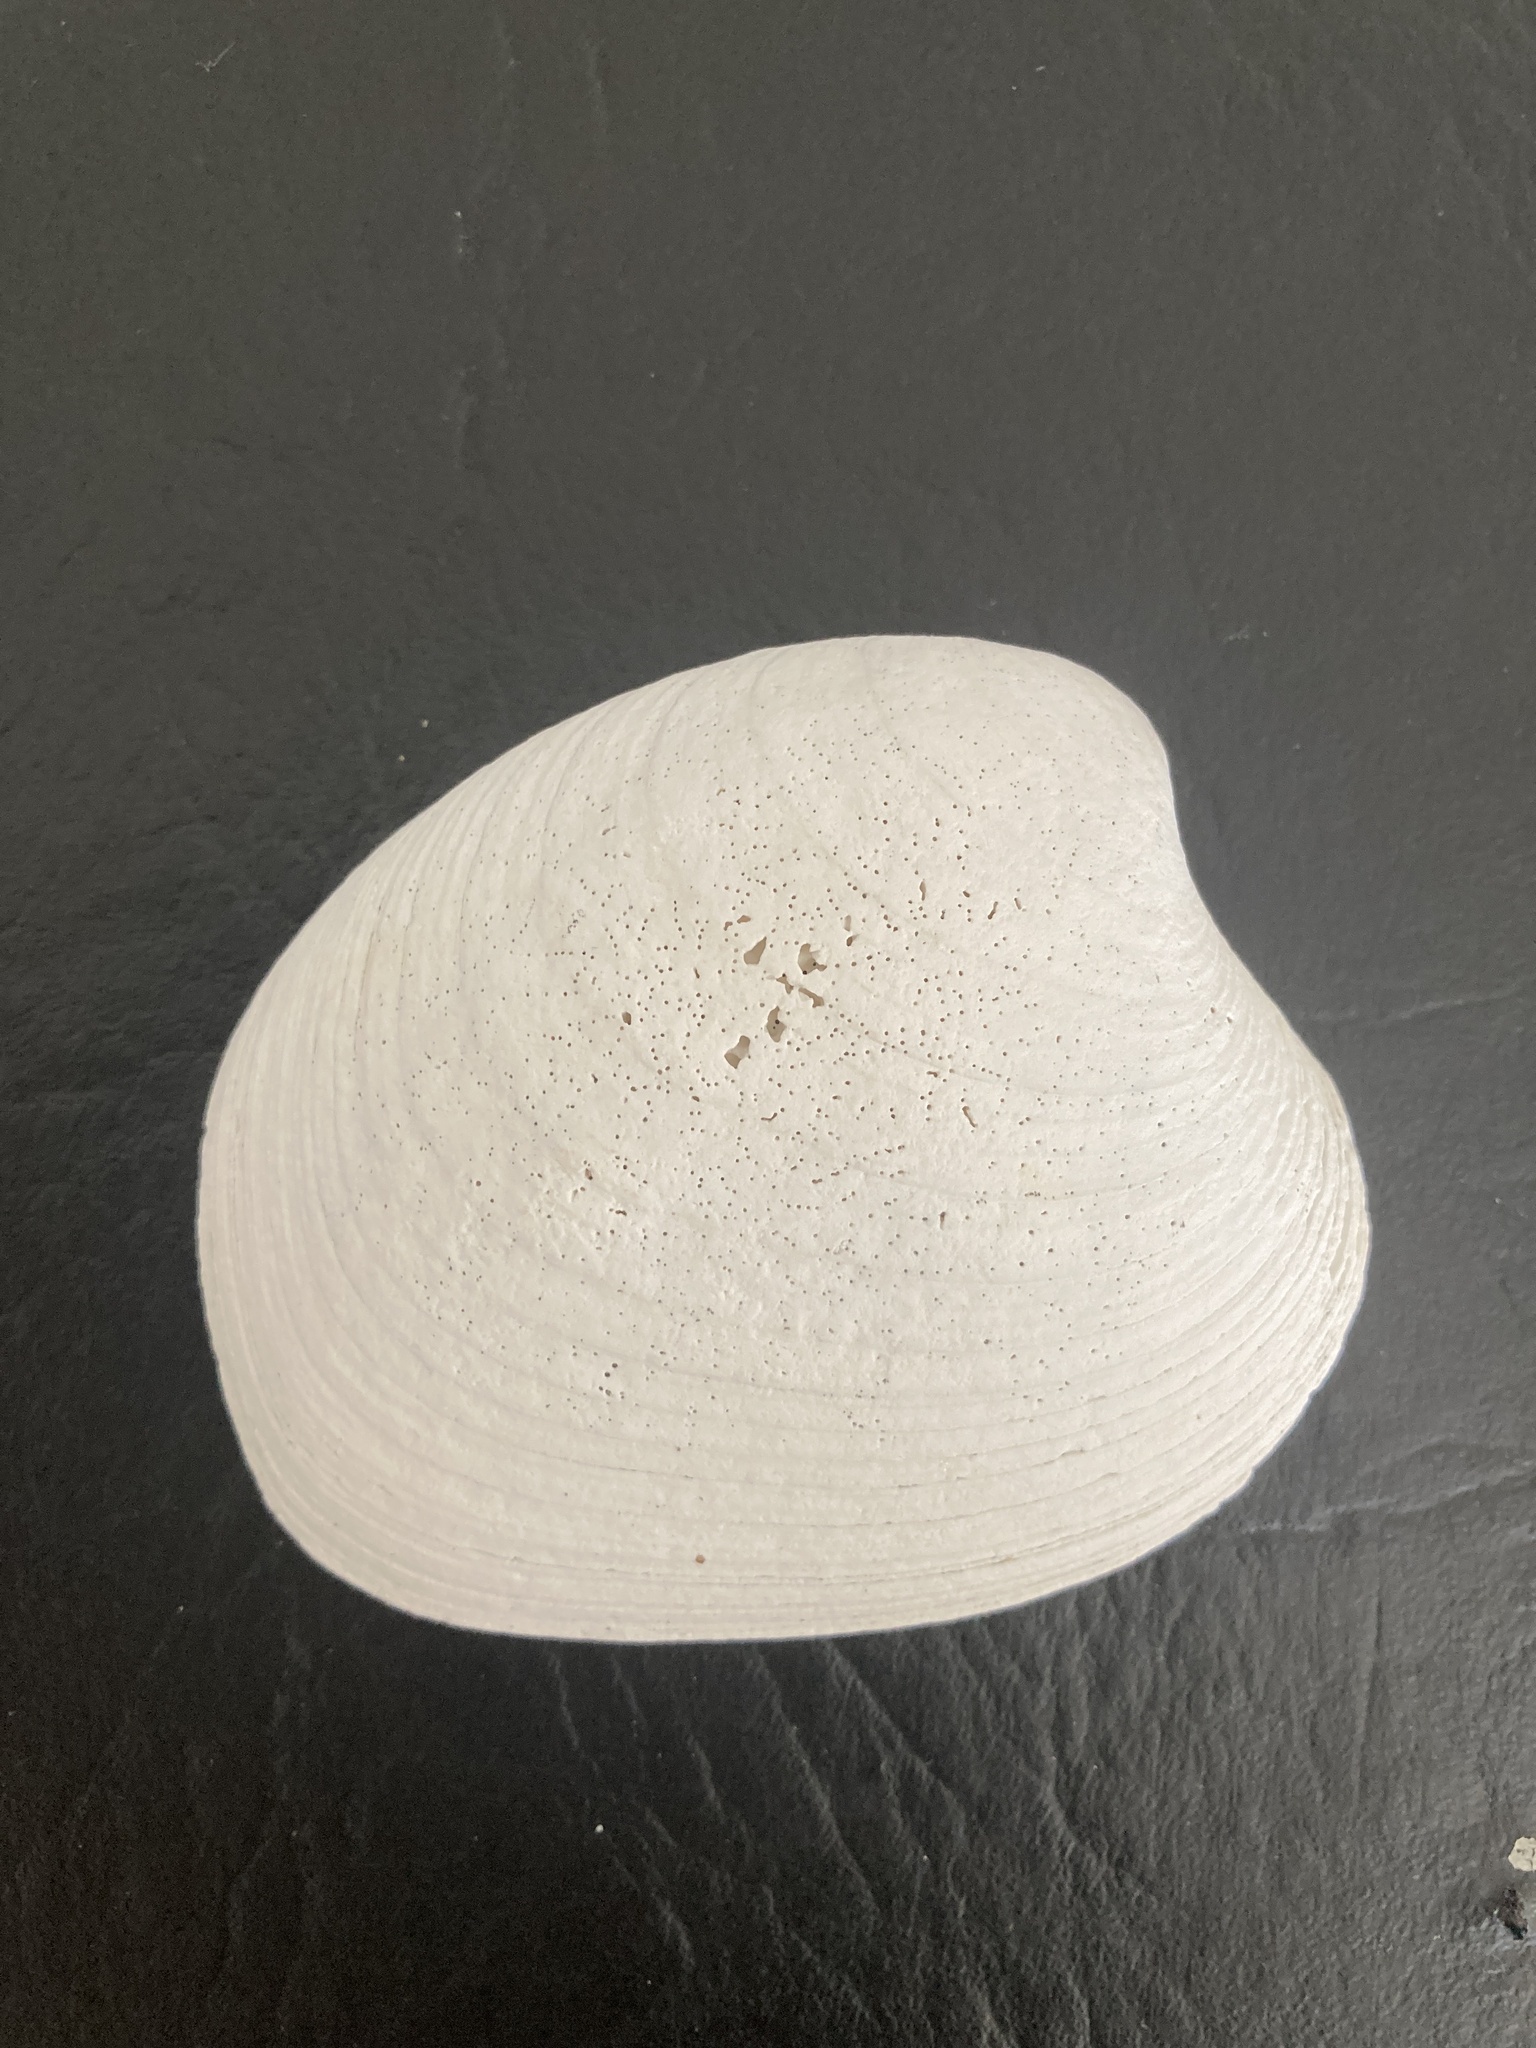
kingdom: Animalia
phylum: Mollusca
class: Bivalvia
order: Venerida
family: Veneridae
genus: Retrotapes
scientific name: Retrotapes exalbidus
